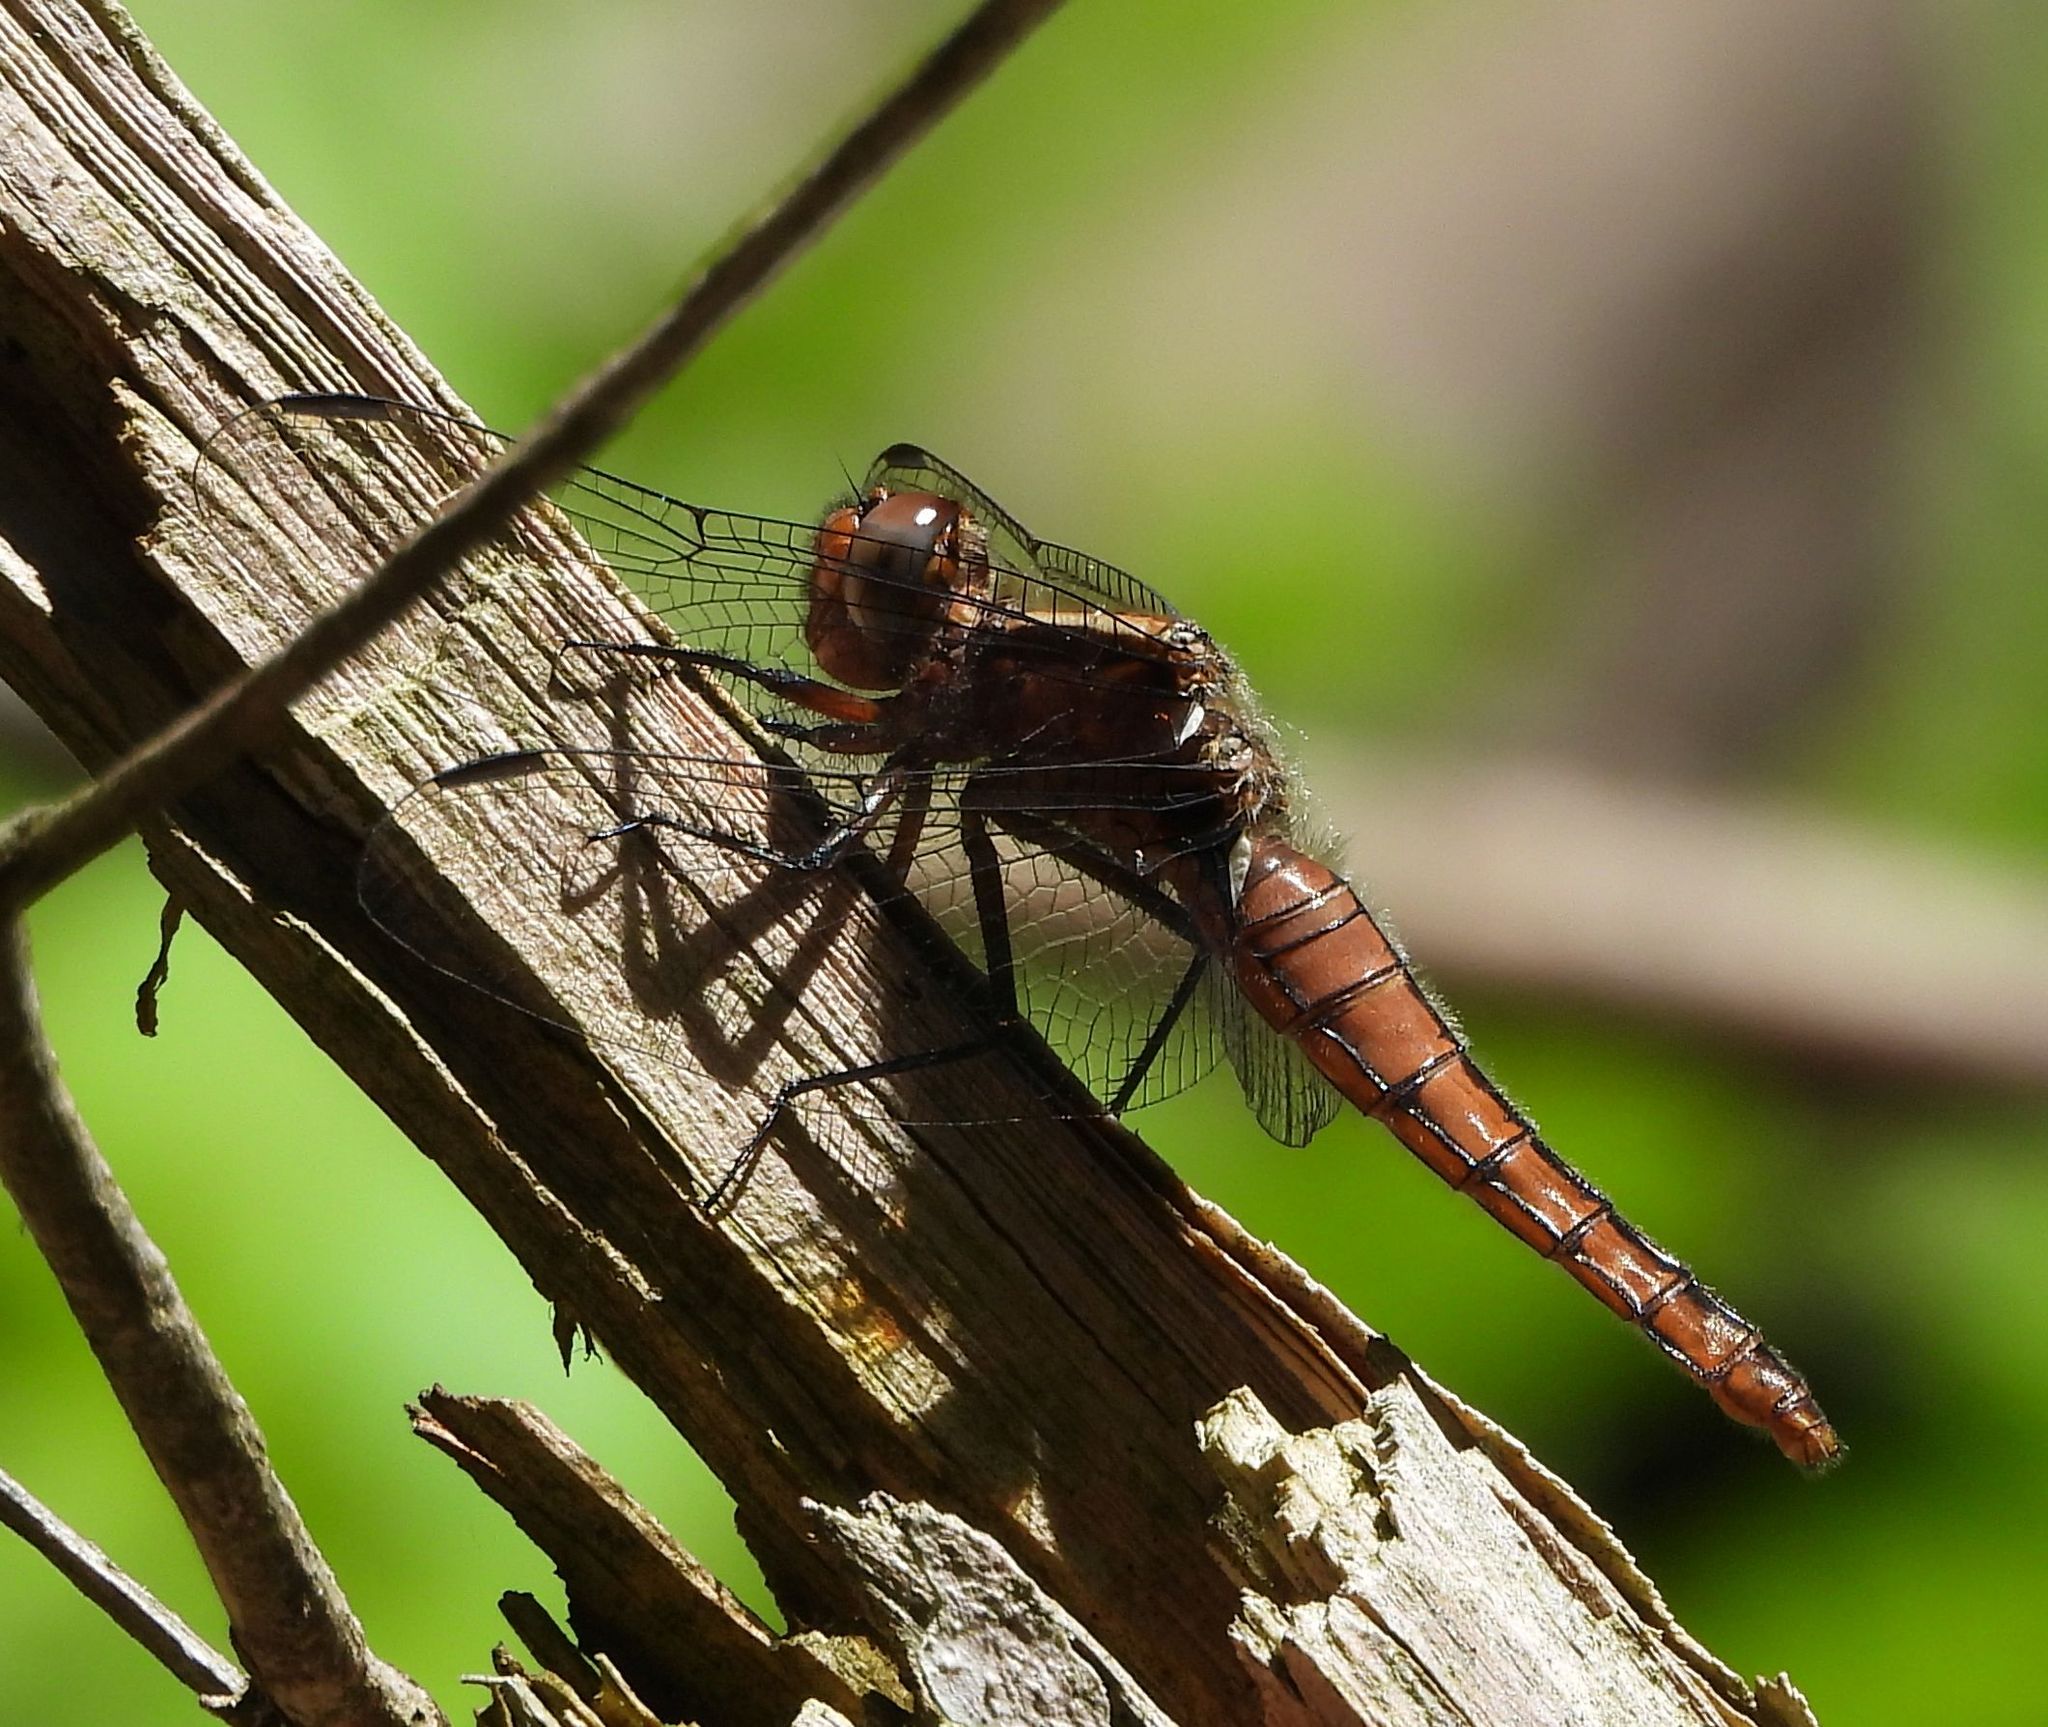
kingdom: Animalia
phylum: Arthropoda
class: Insecta
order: Odonata
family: Libellulidae
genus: Ladona
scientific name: Ladona julia
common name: Chalk-fronted corporal
